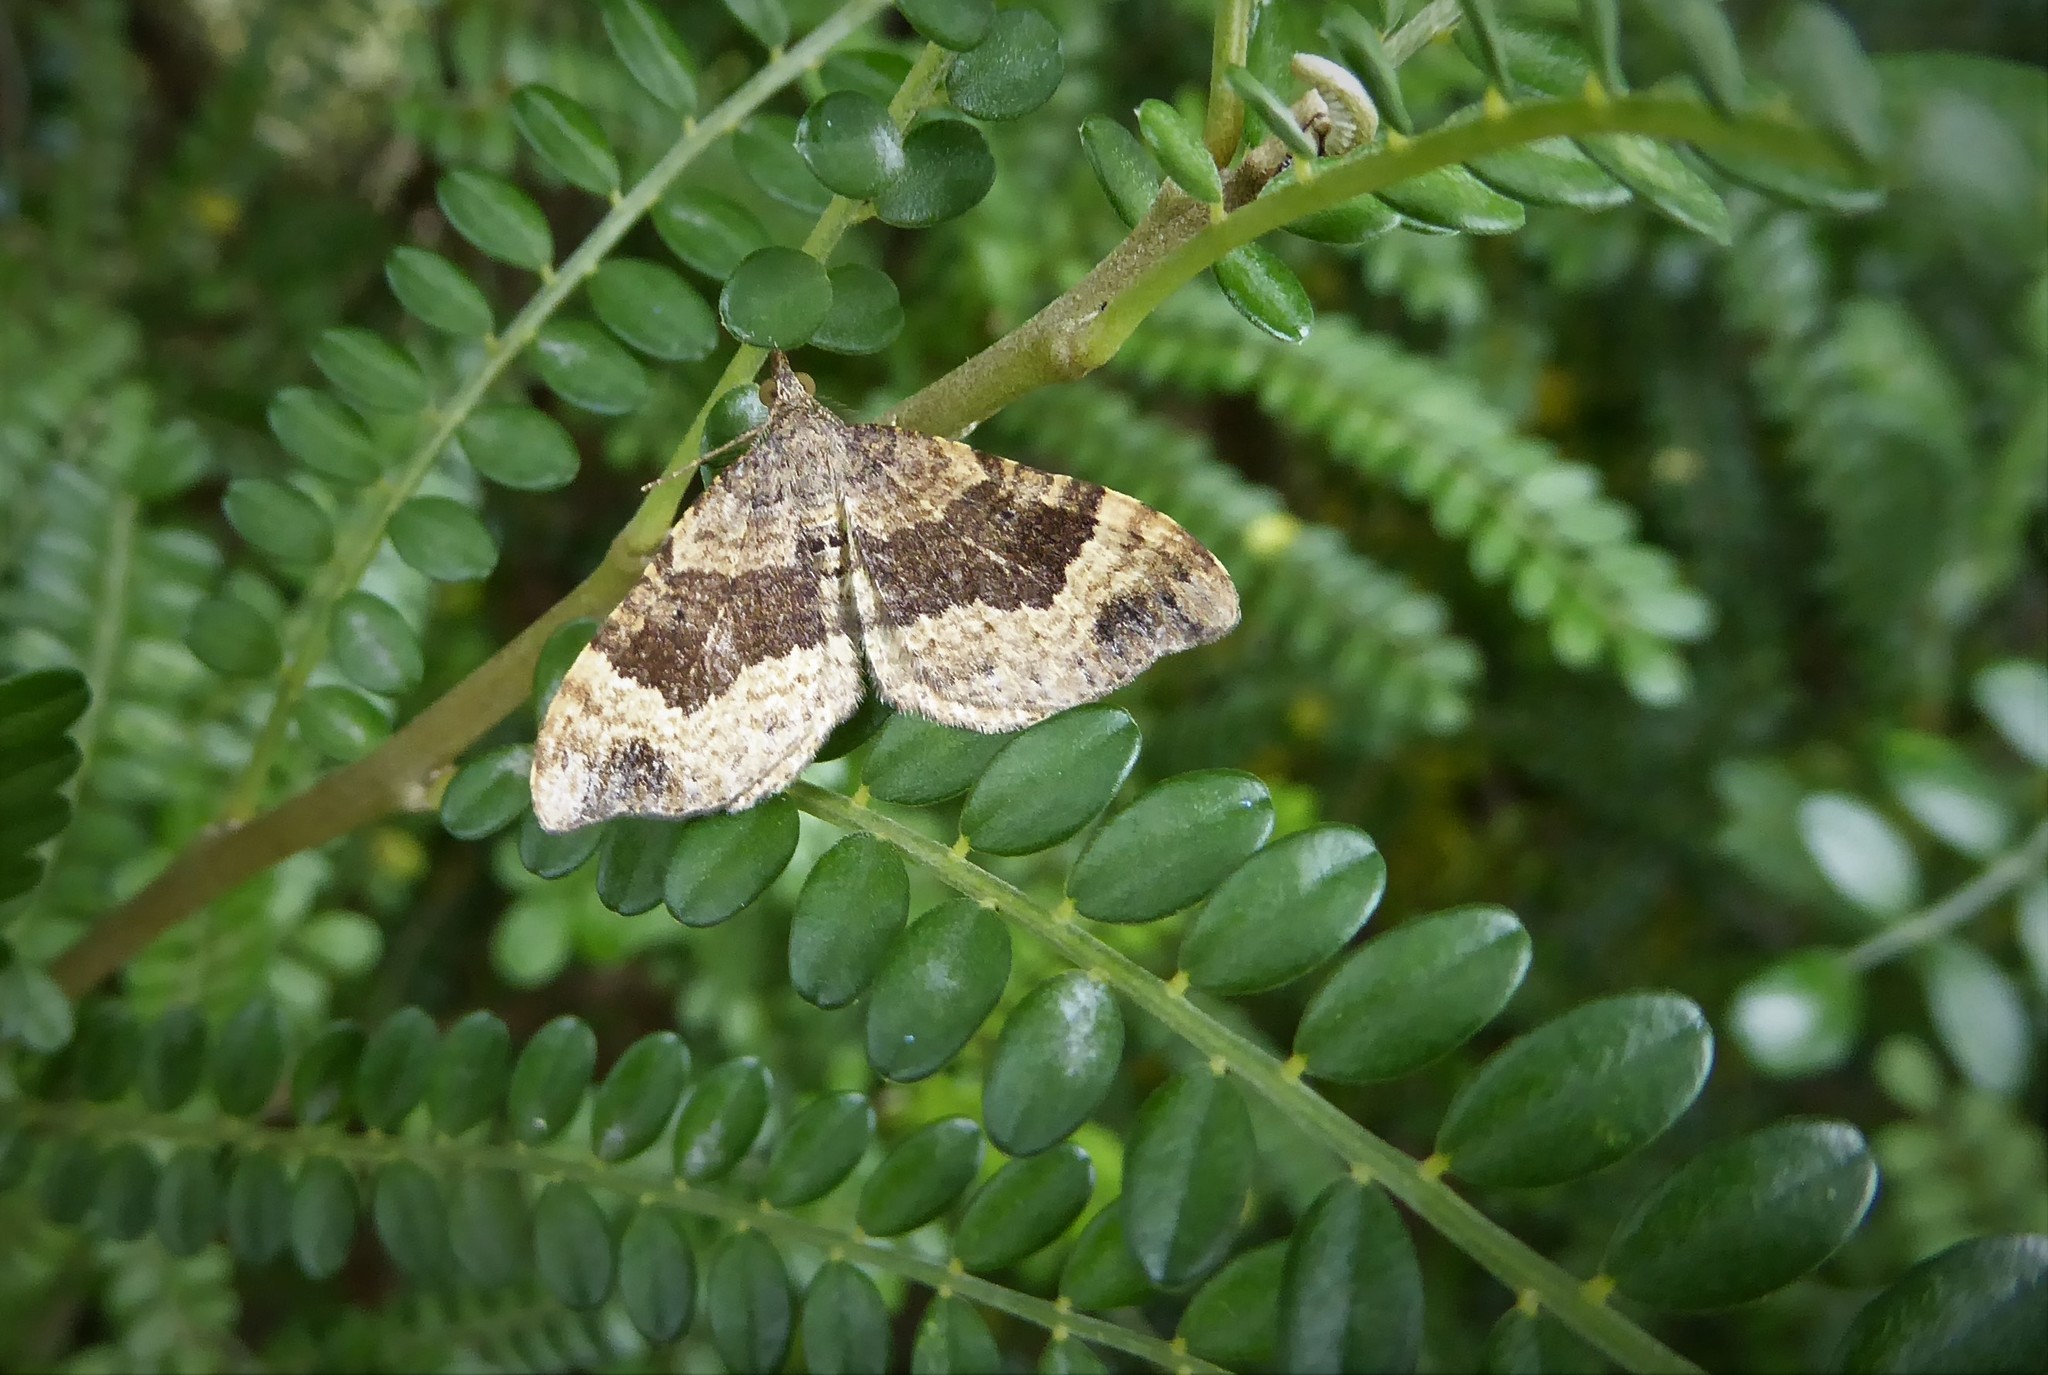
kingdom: Animalia
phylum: Arthropoda
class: Insecta
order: Lepidoptera
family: Geometridae
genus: Homodotis
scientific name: Homodotis megaspilata
